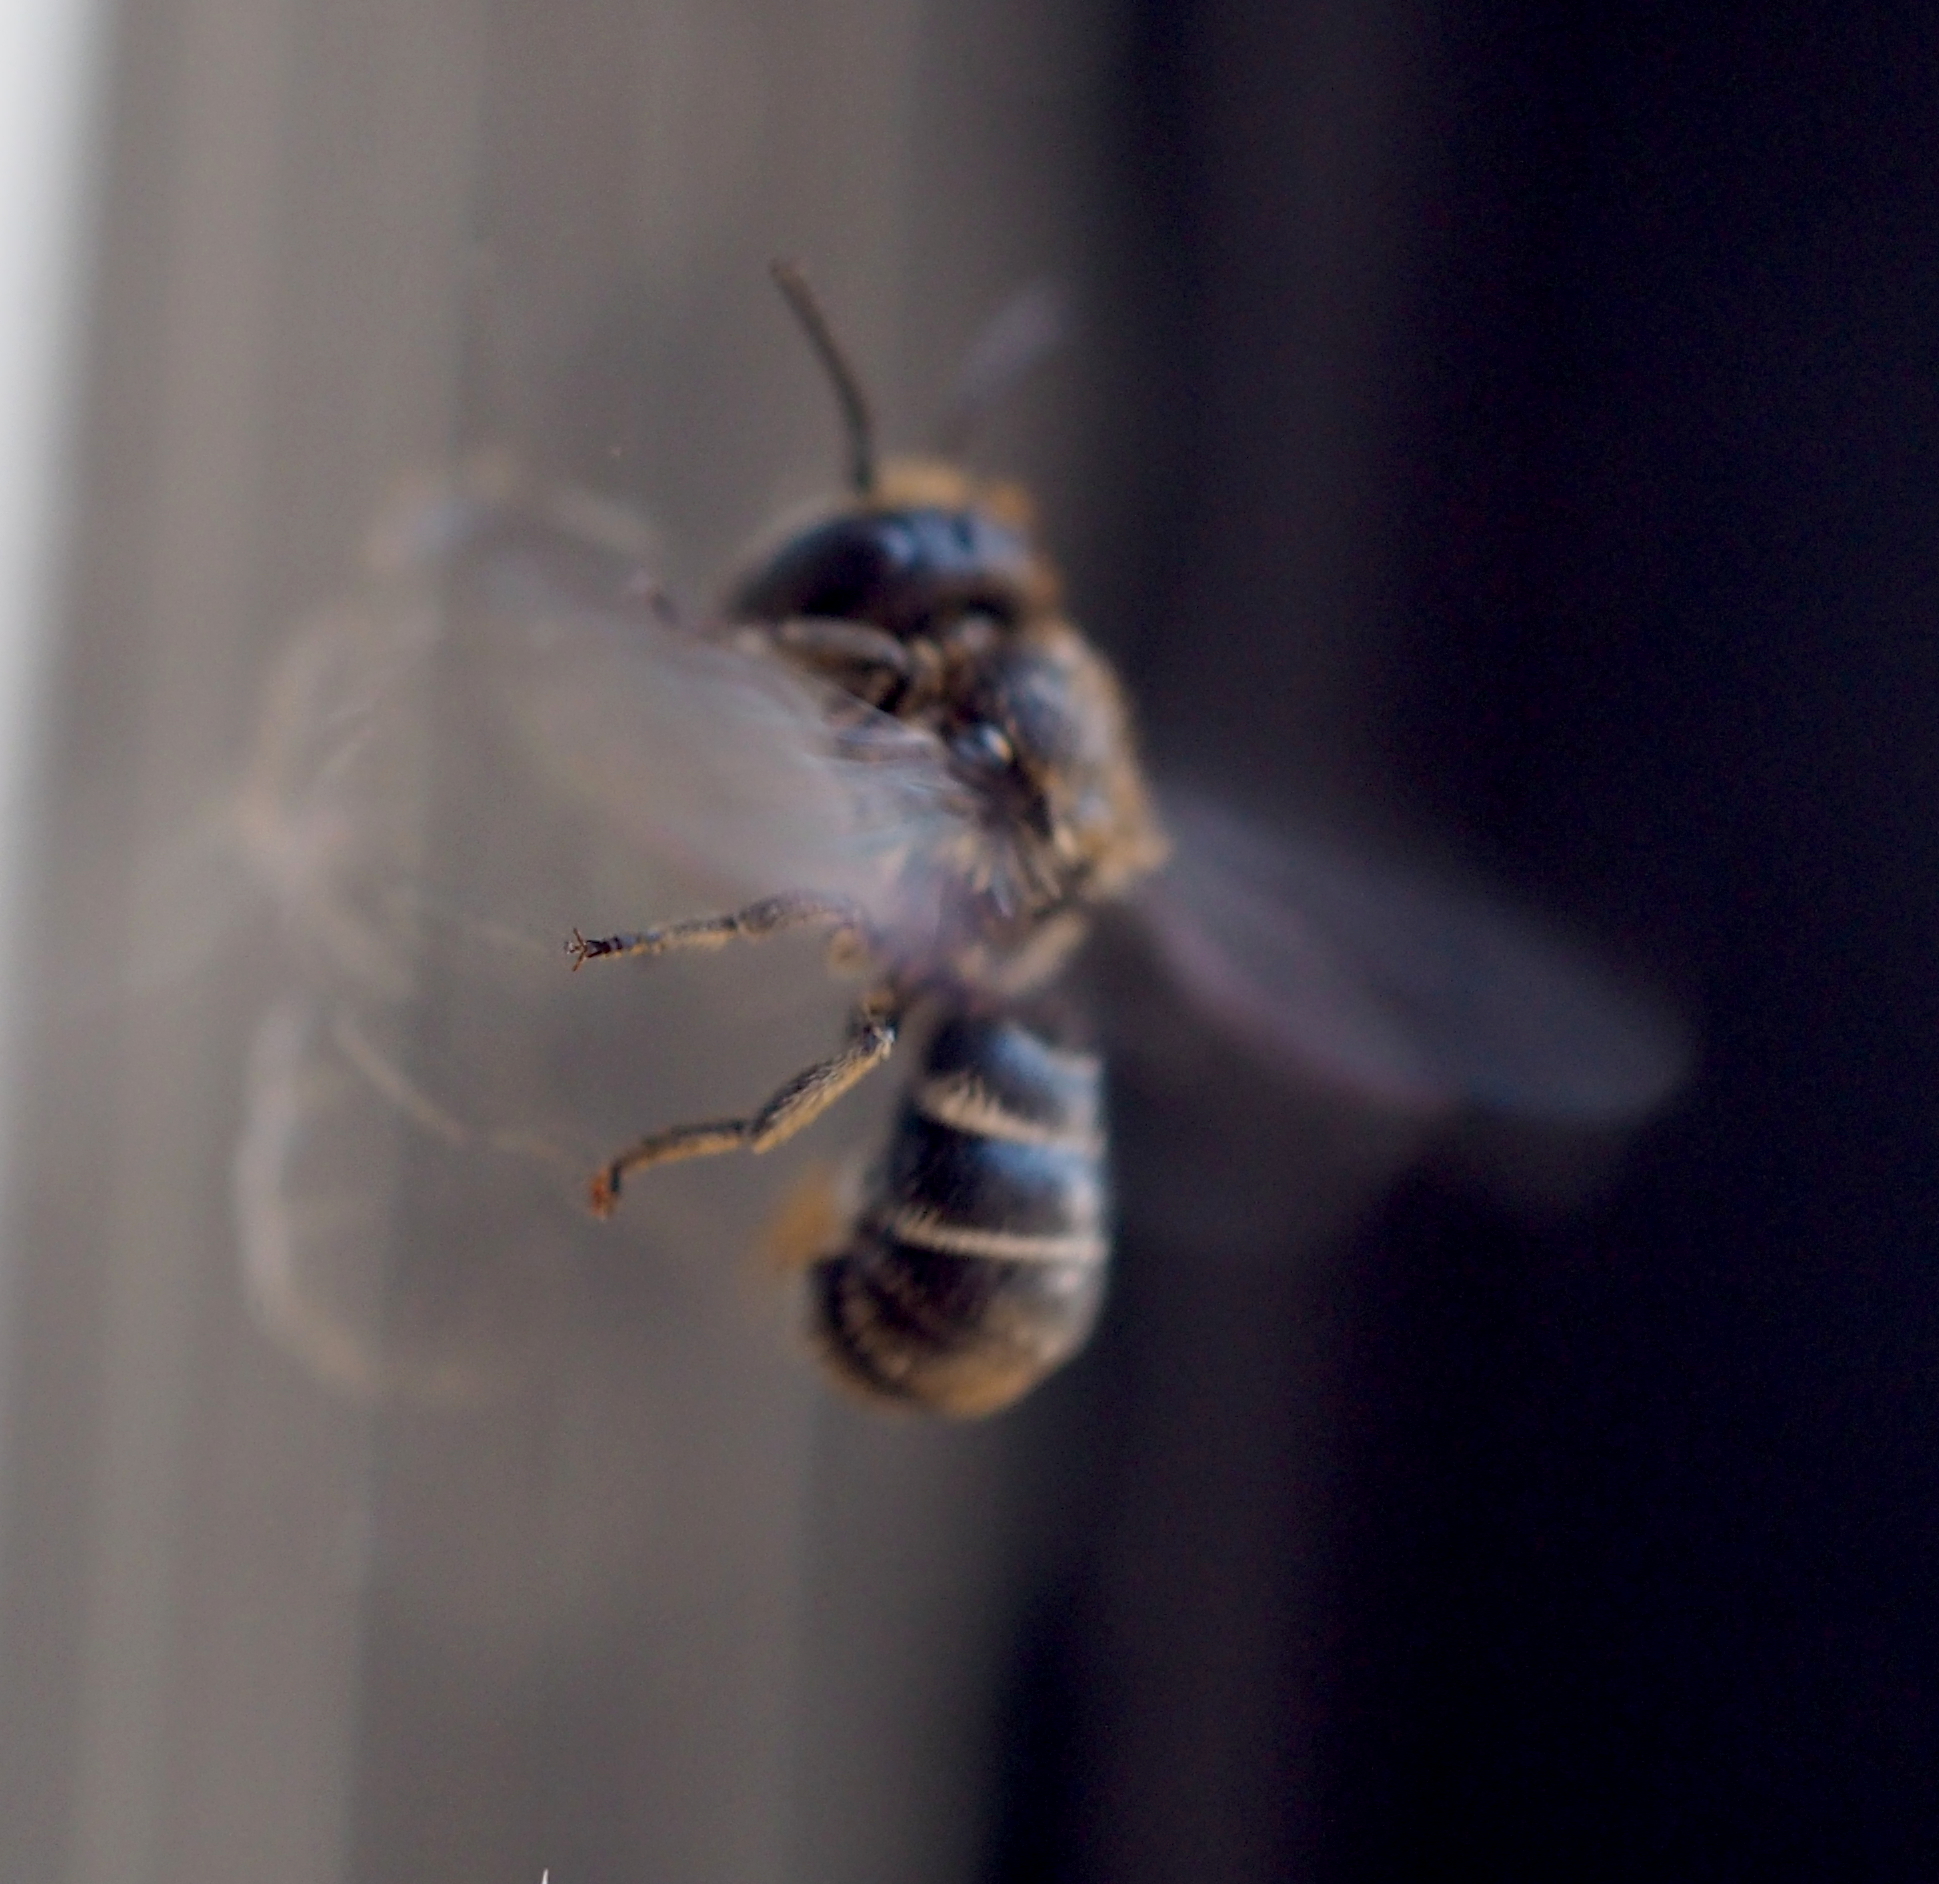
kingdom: Animalia
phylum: Arthropoda
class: Insecta
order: Hymenoptera
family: Megachilidae
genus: Heriades
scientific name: Heriades truncorum
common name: Ridge-saddled carpenter bee
